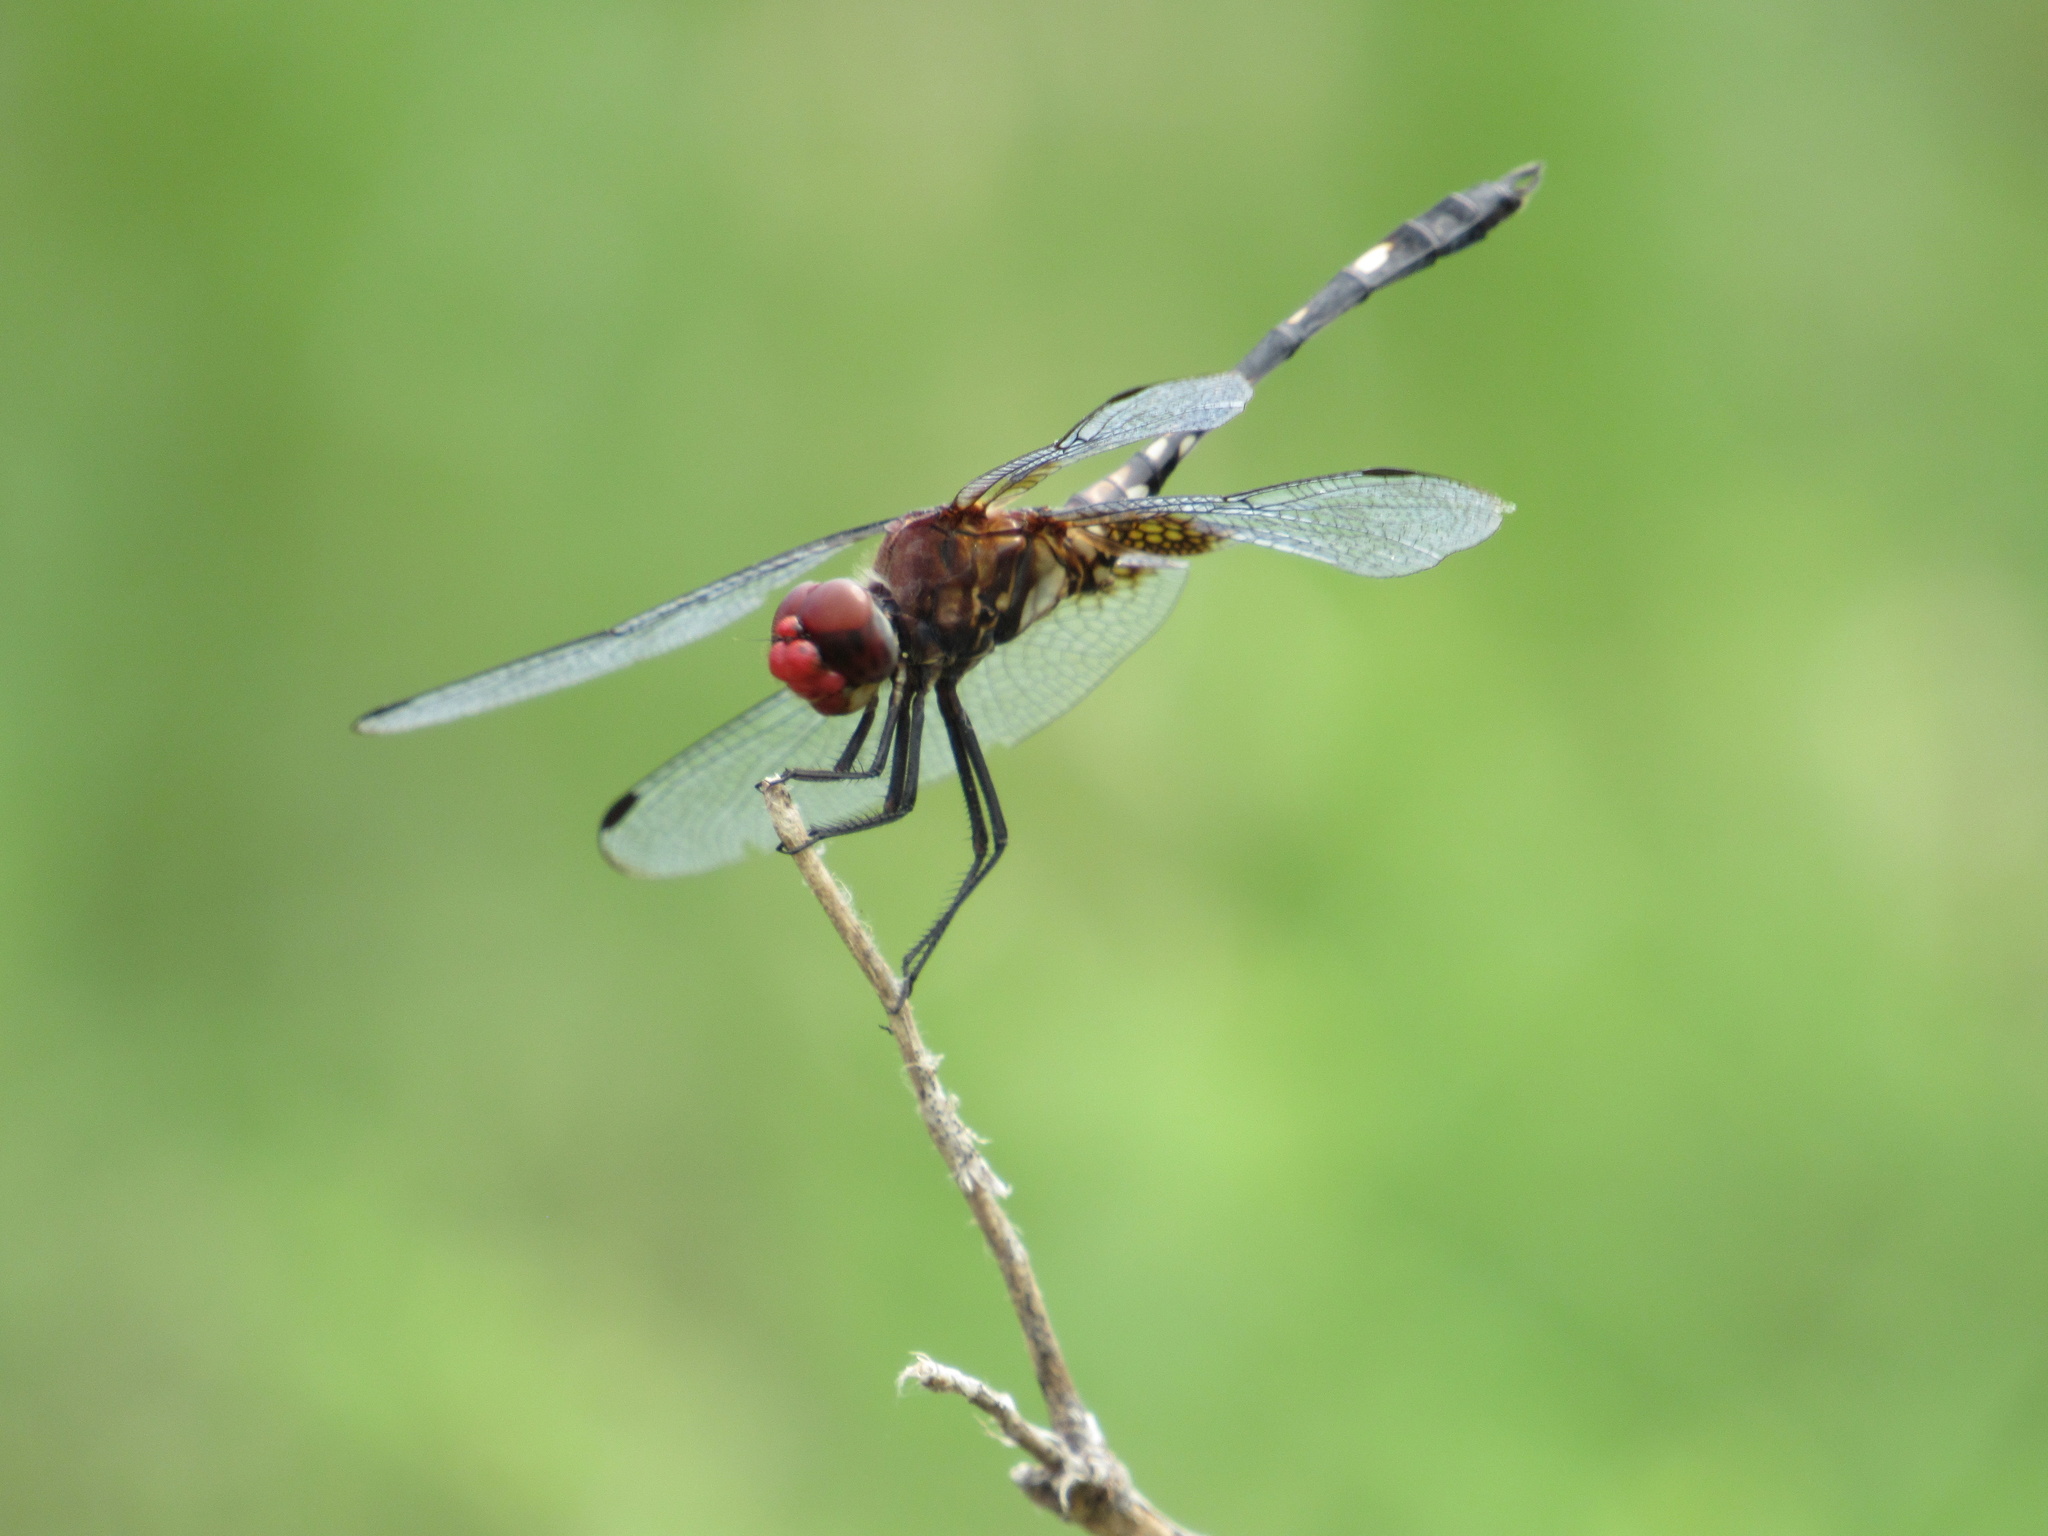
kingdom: Animalia
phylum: Arthropoda
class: Insecta
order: Odonata
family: Libellulidae
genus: Dythemis
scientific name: Dythemis fugax
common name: Checkered setwing
